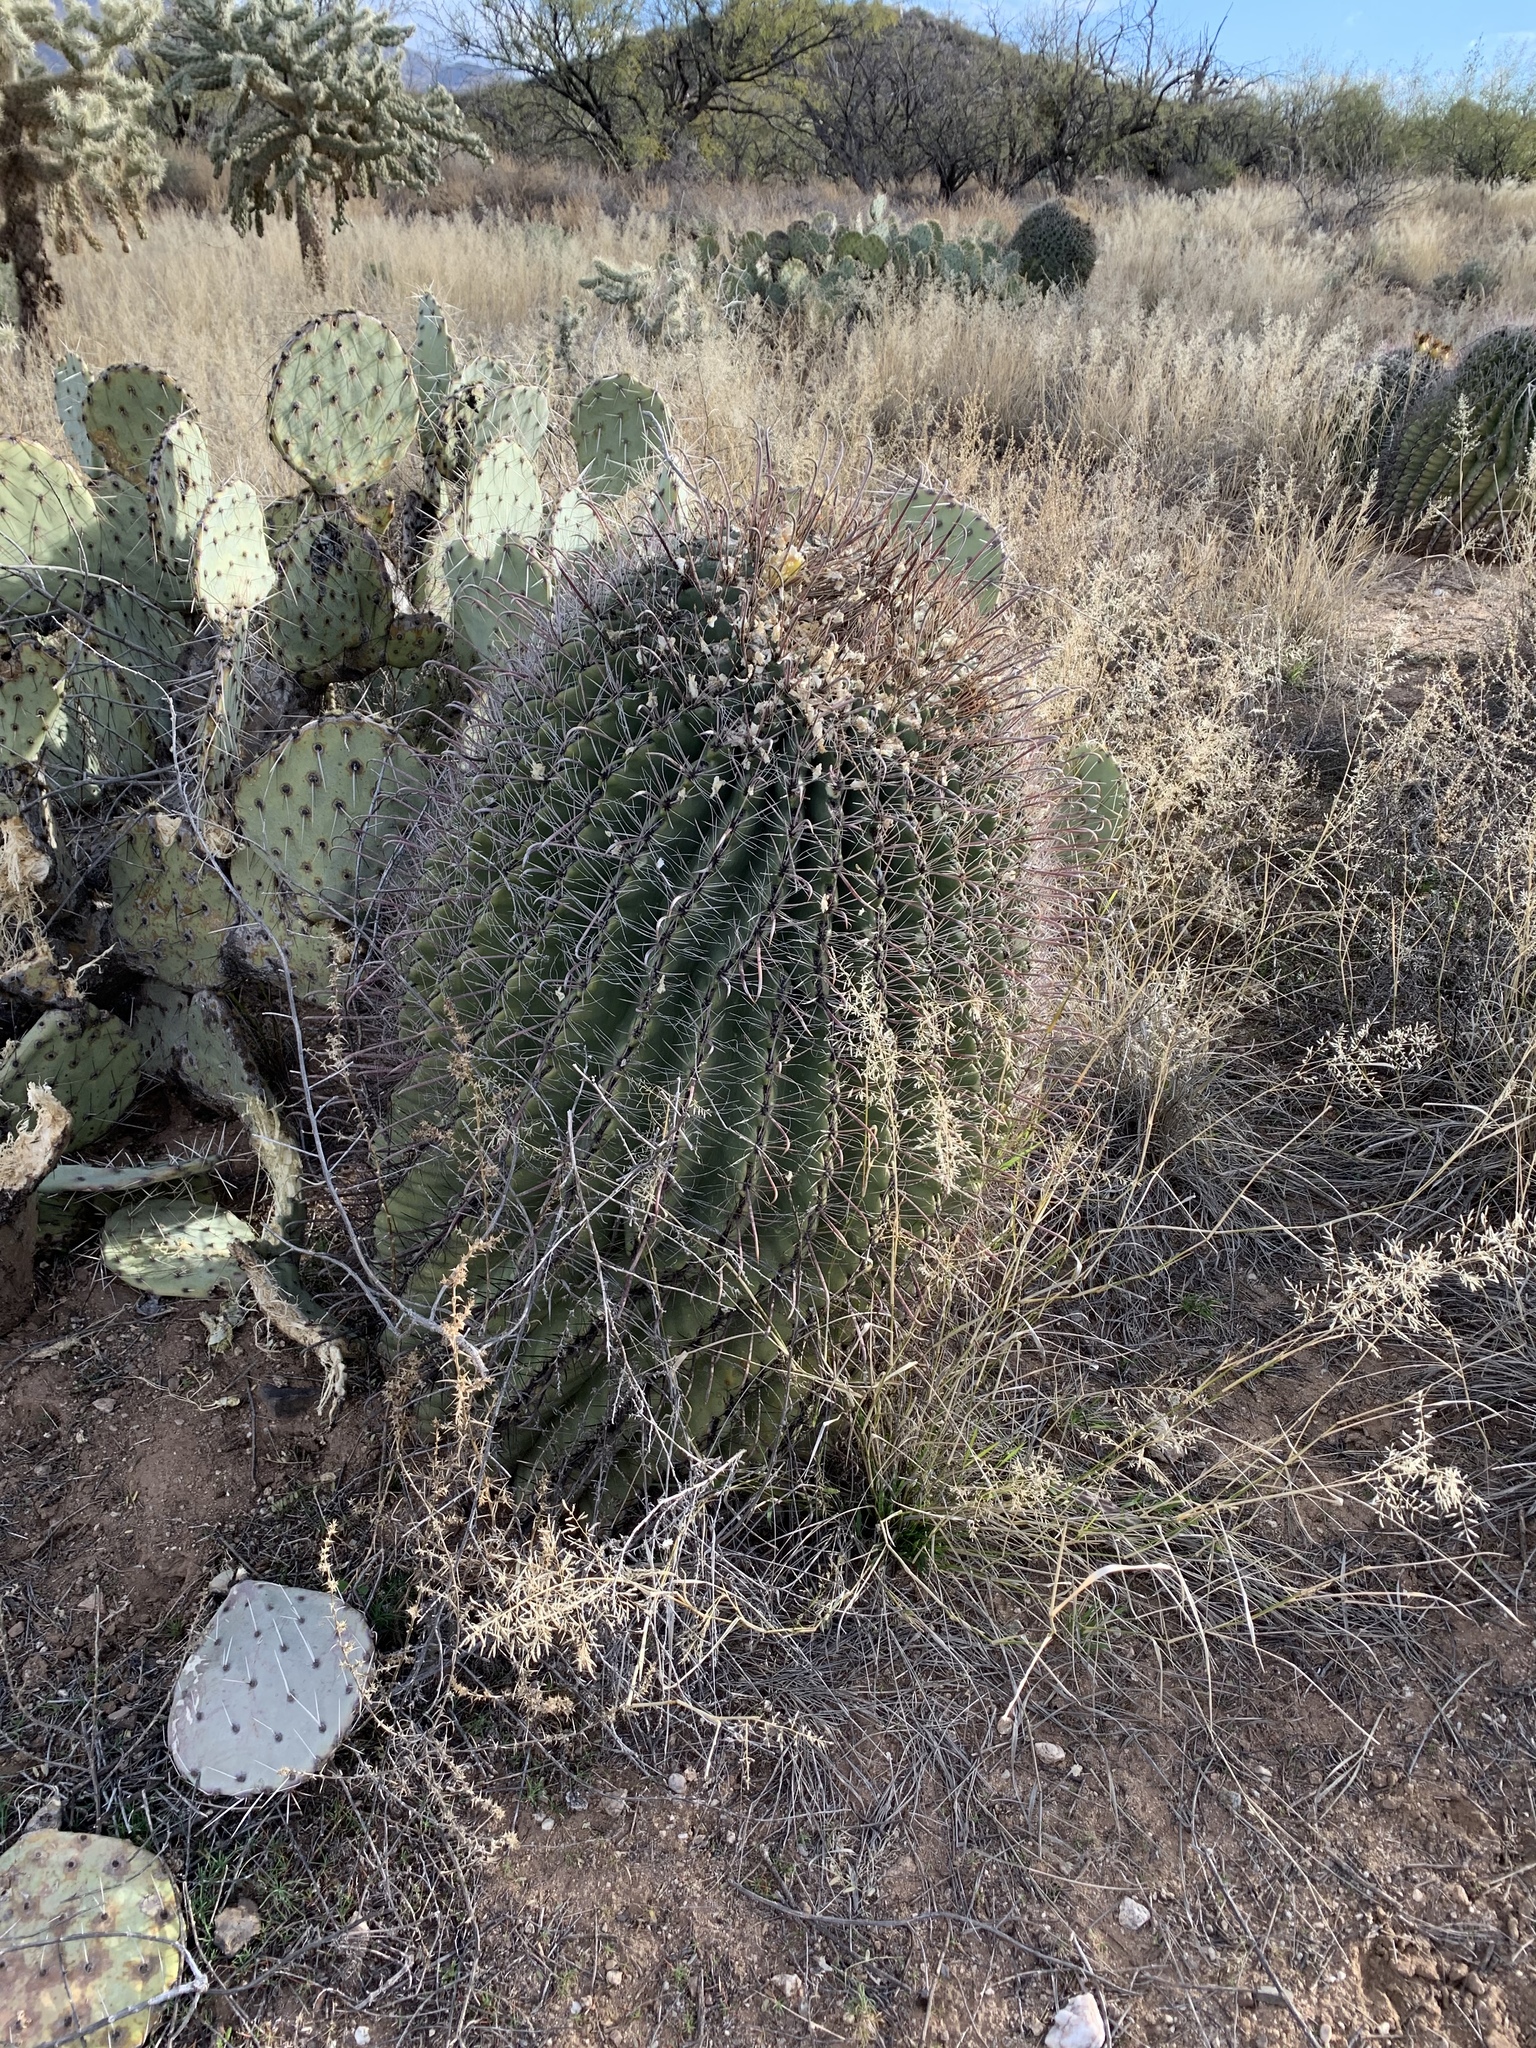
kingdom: Plantae
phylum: Tracheophyta
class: Magnoliopsida
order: Caryophyllales
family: Cactaceae
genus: Ferocactus
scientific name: Ferocactus wislizeni
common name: Candy barrel cactus
